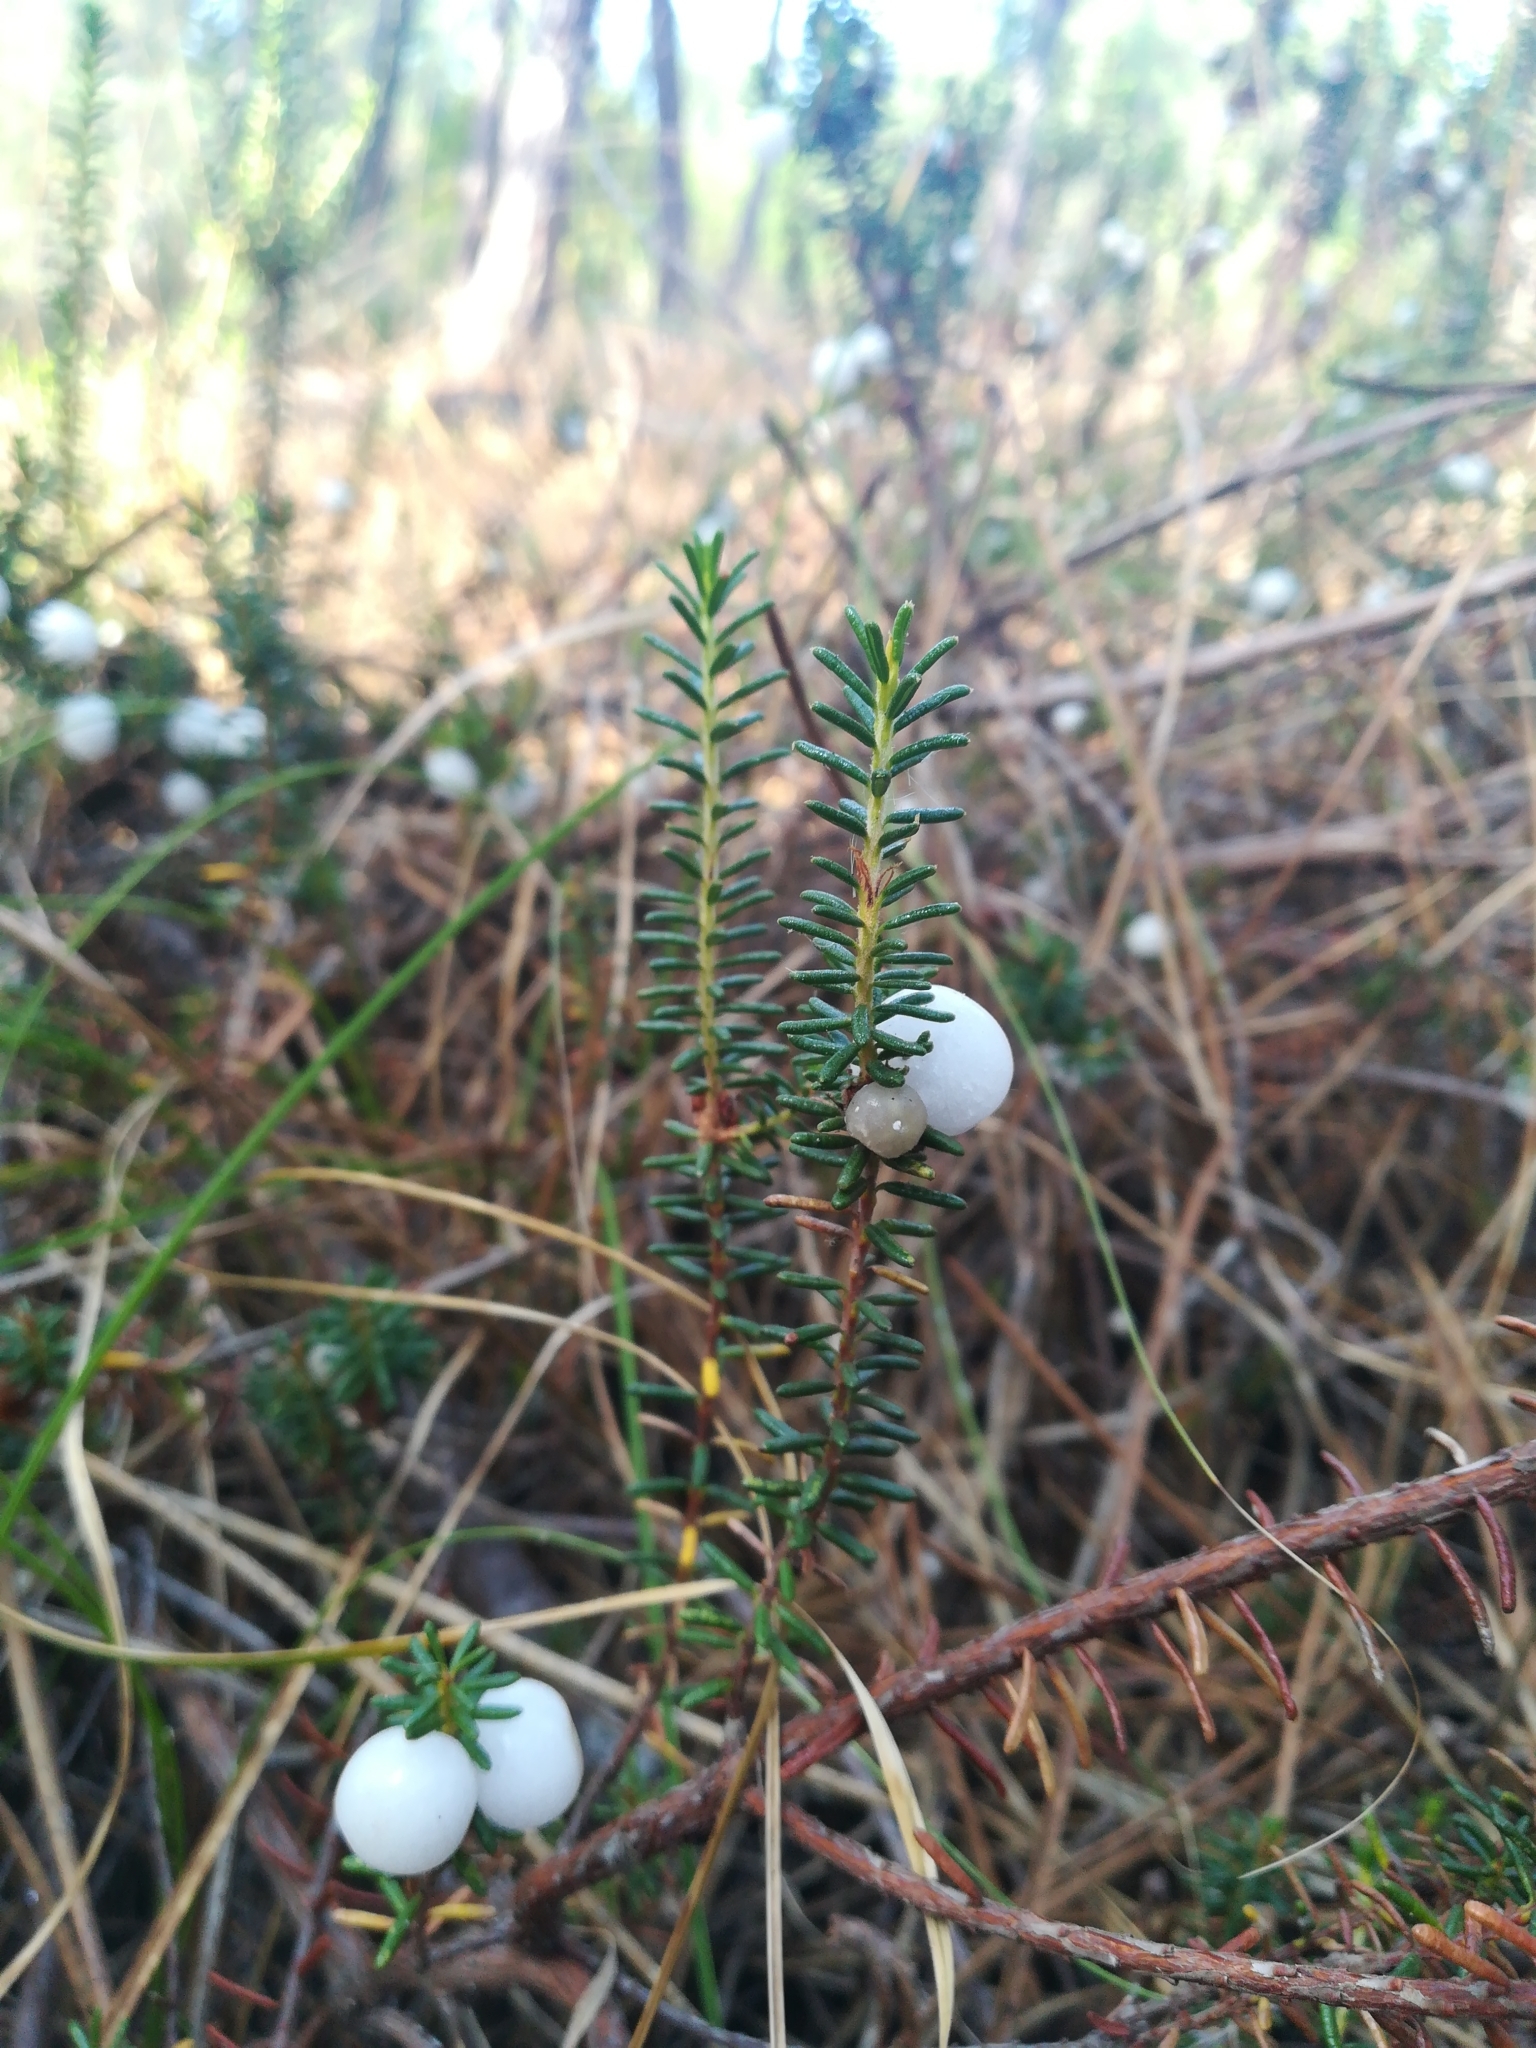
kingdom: Plantae
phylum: Tracheophyta
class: Magnoliopsida
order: Ericales
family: Ericaceae
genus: Corema
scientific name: Corema album
